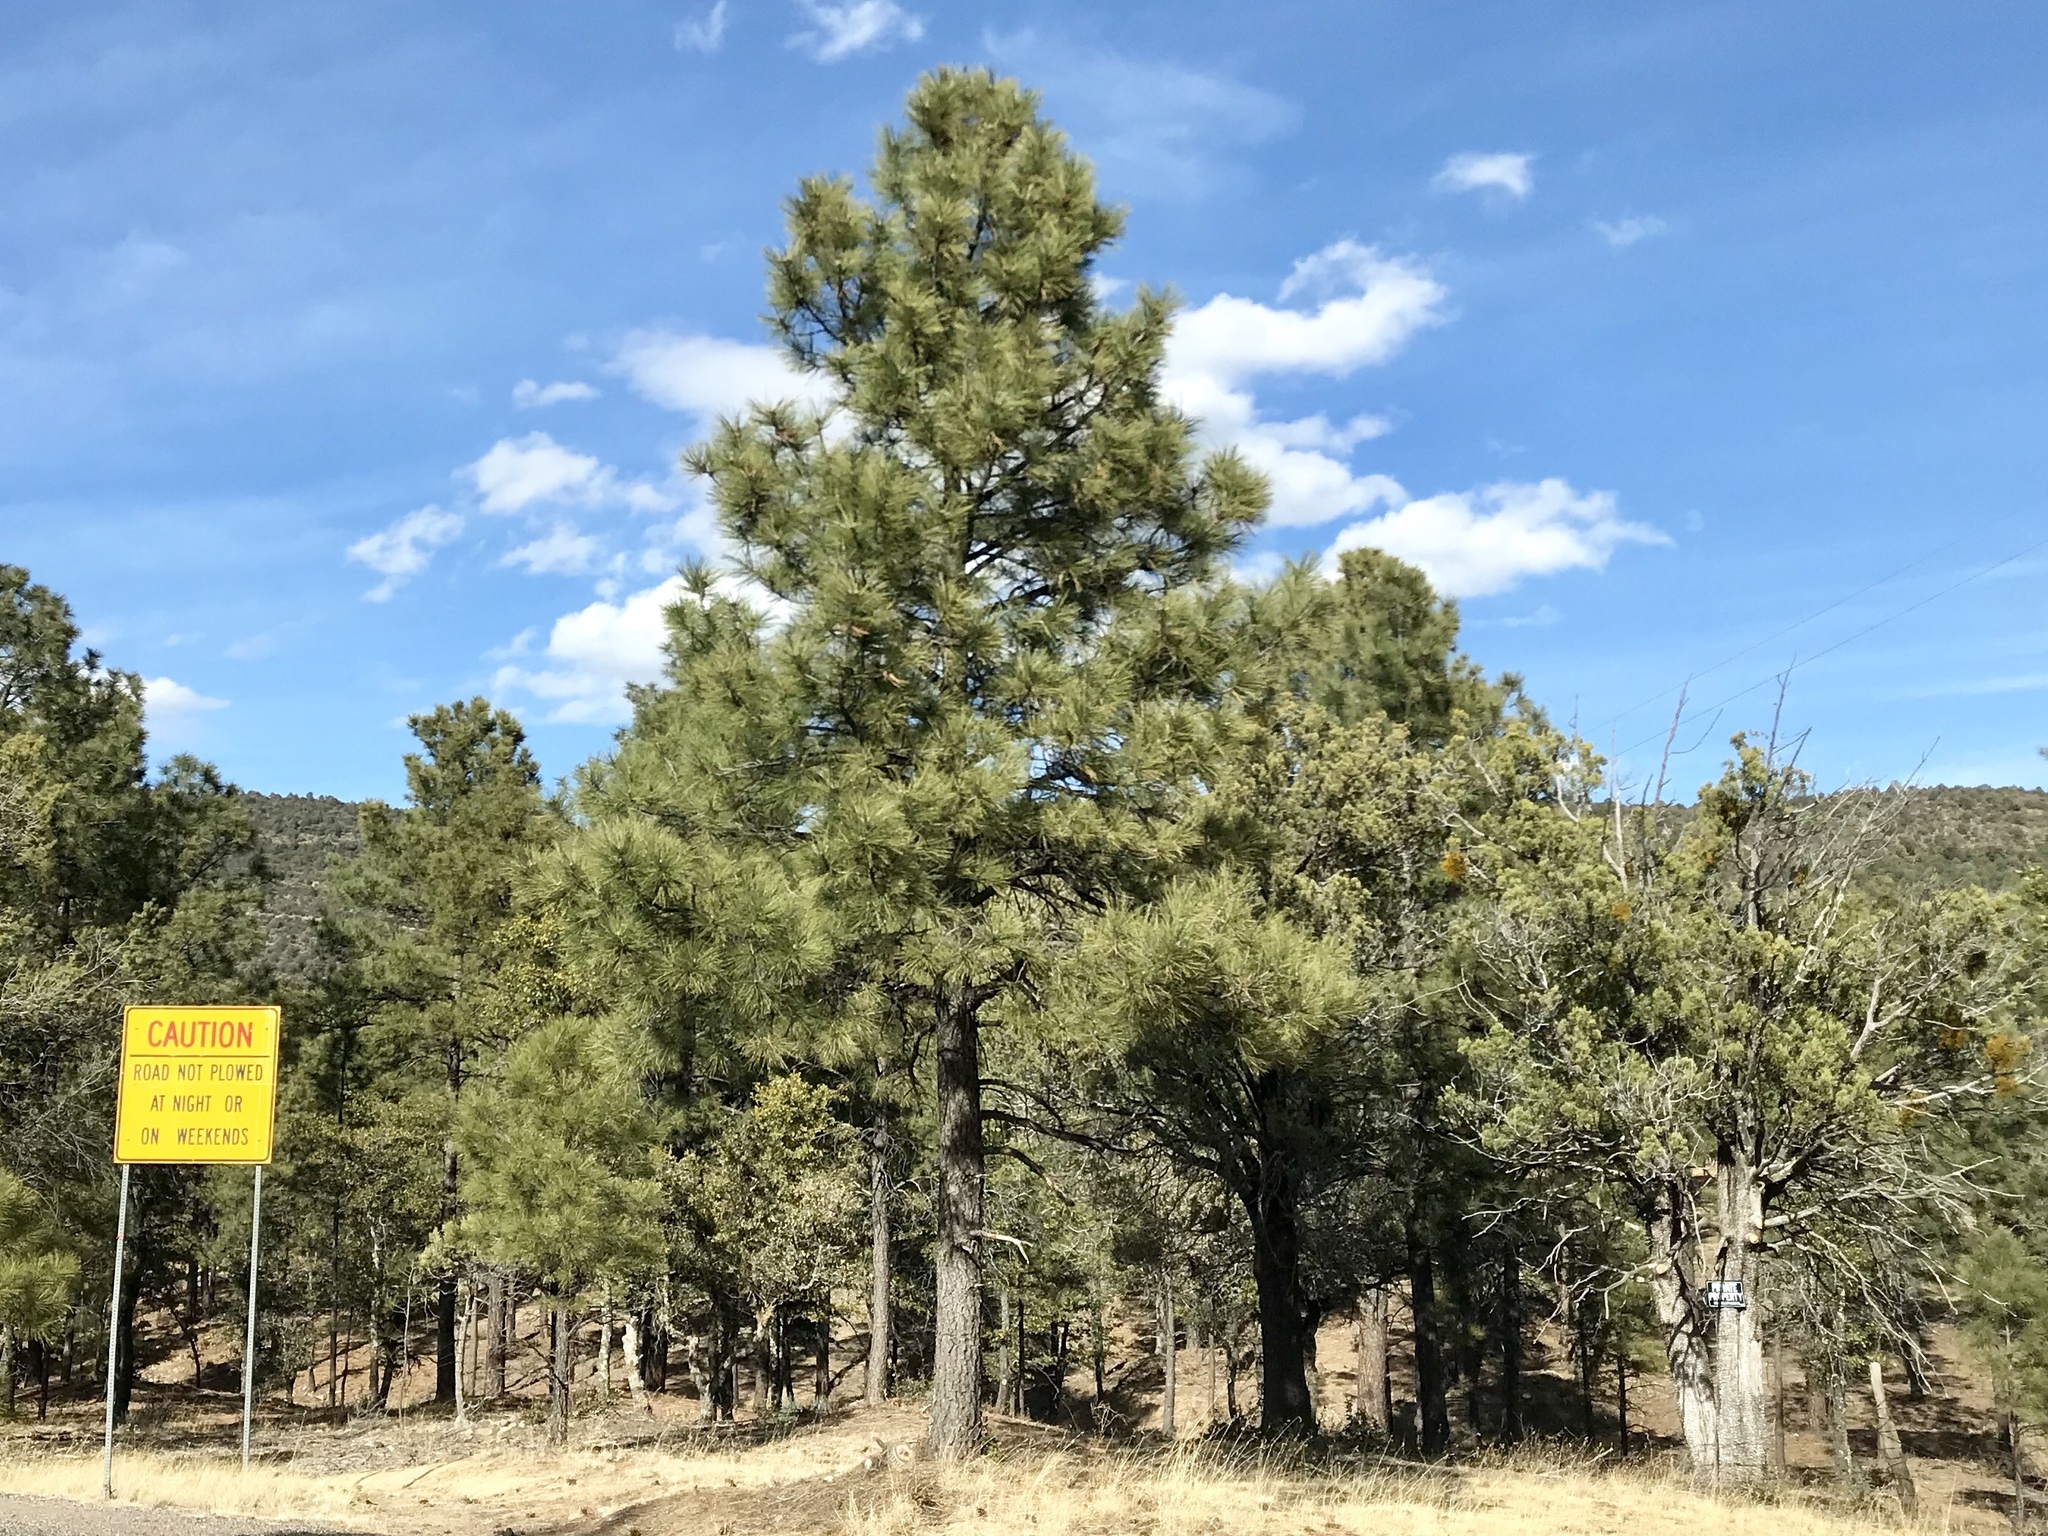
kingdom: Plantae
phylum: Tracheophyta
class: Pinopsida
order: Pinales
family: Pinaceae
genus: Pinus
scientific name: Pinus ponderosa
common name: Western yellow-pine
